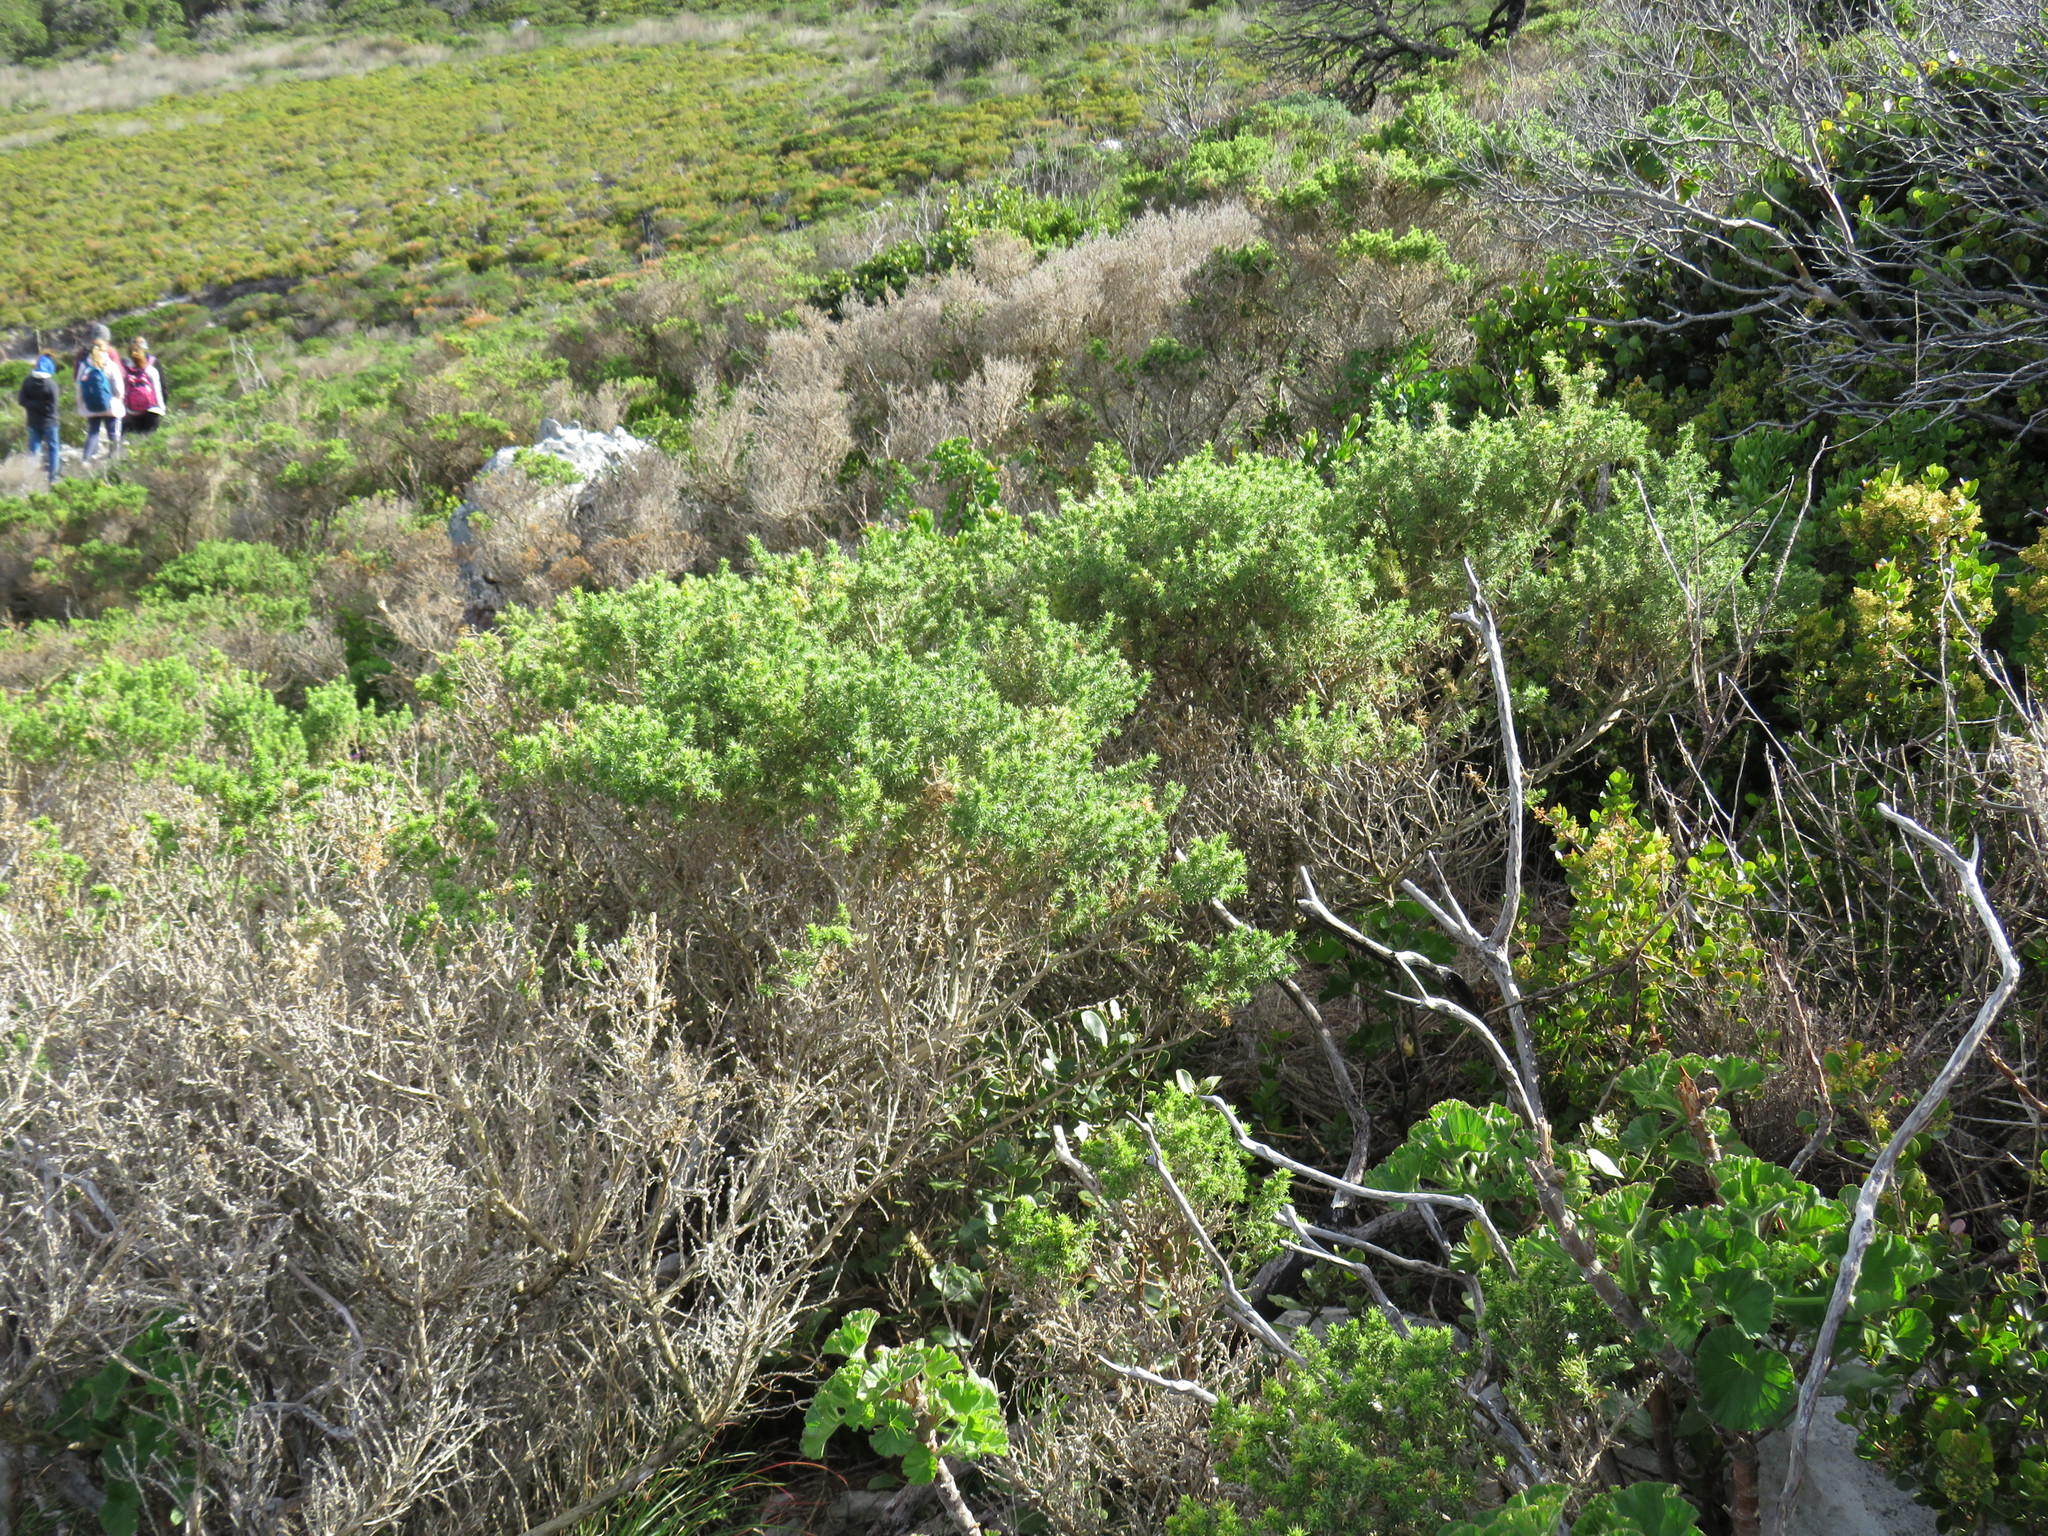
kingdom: Plantae
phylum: Tracheophyta
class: Magnoliopsida
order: Fabales
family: Fabaceae
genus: Aspalathus
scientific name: Aspalathus chenopoda
